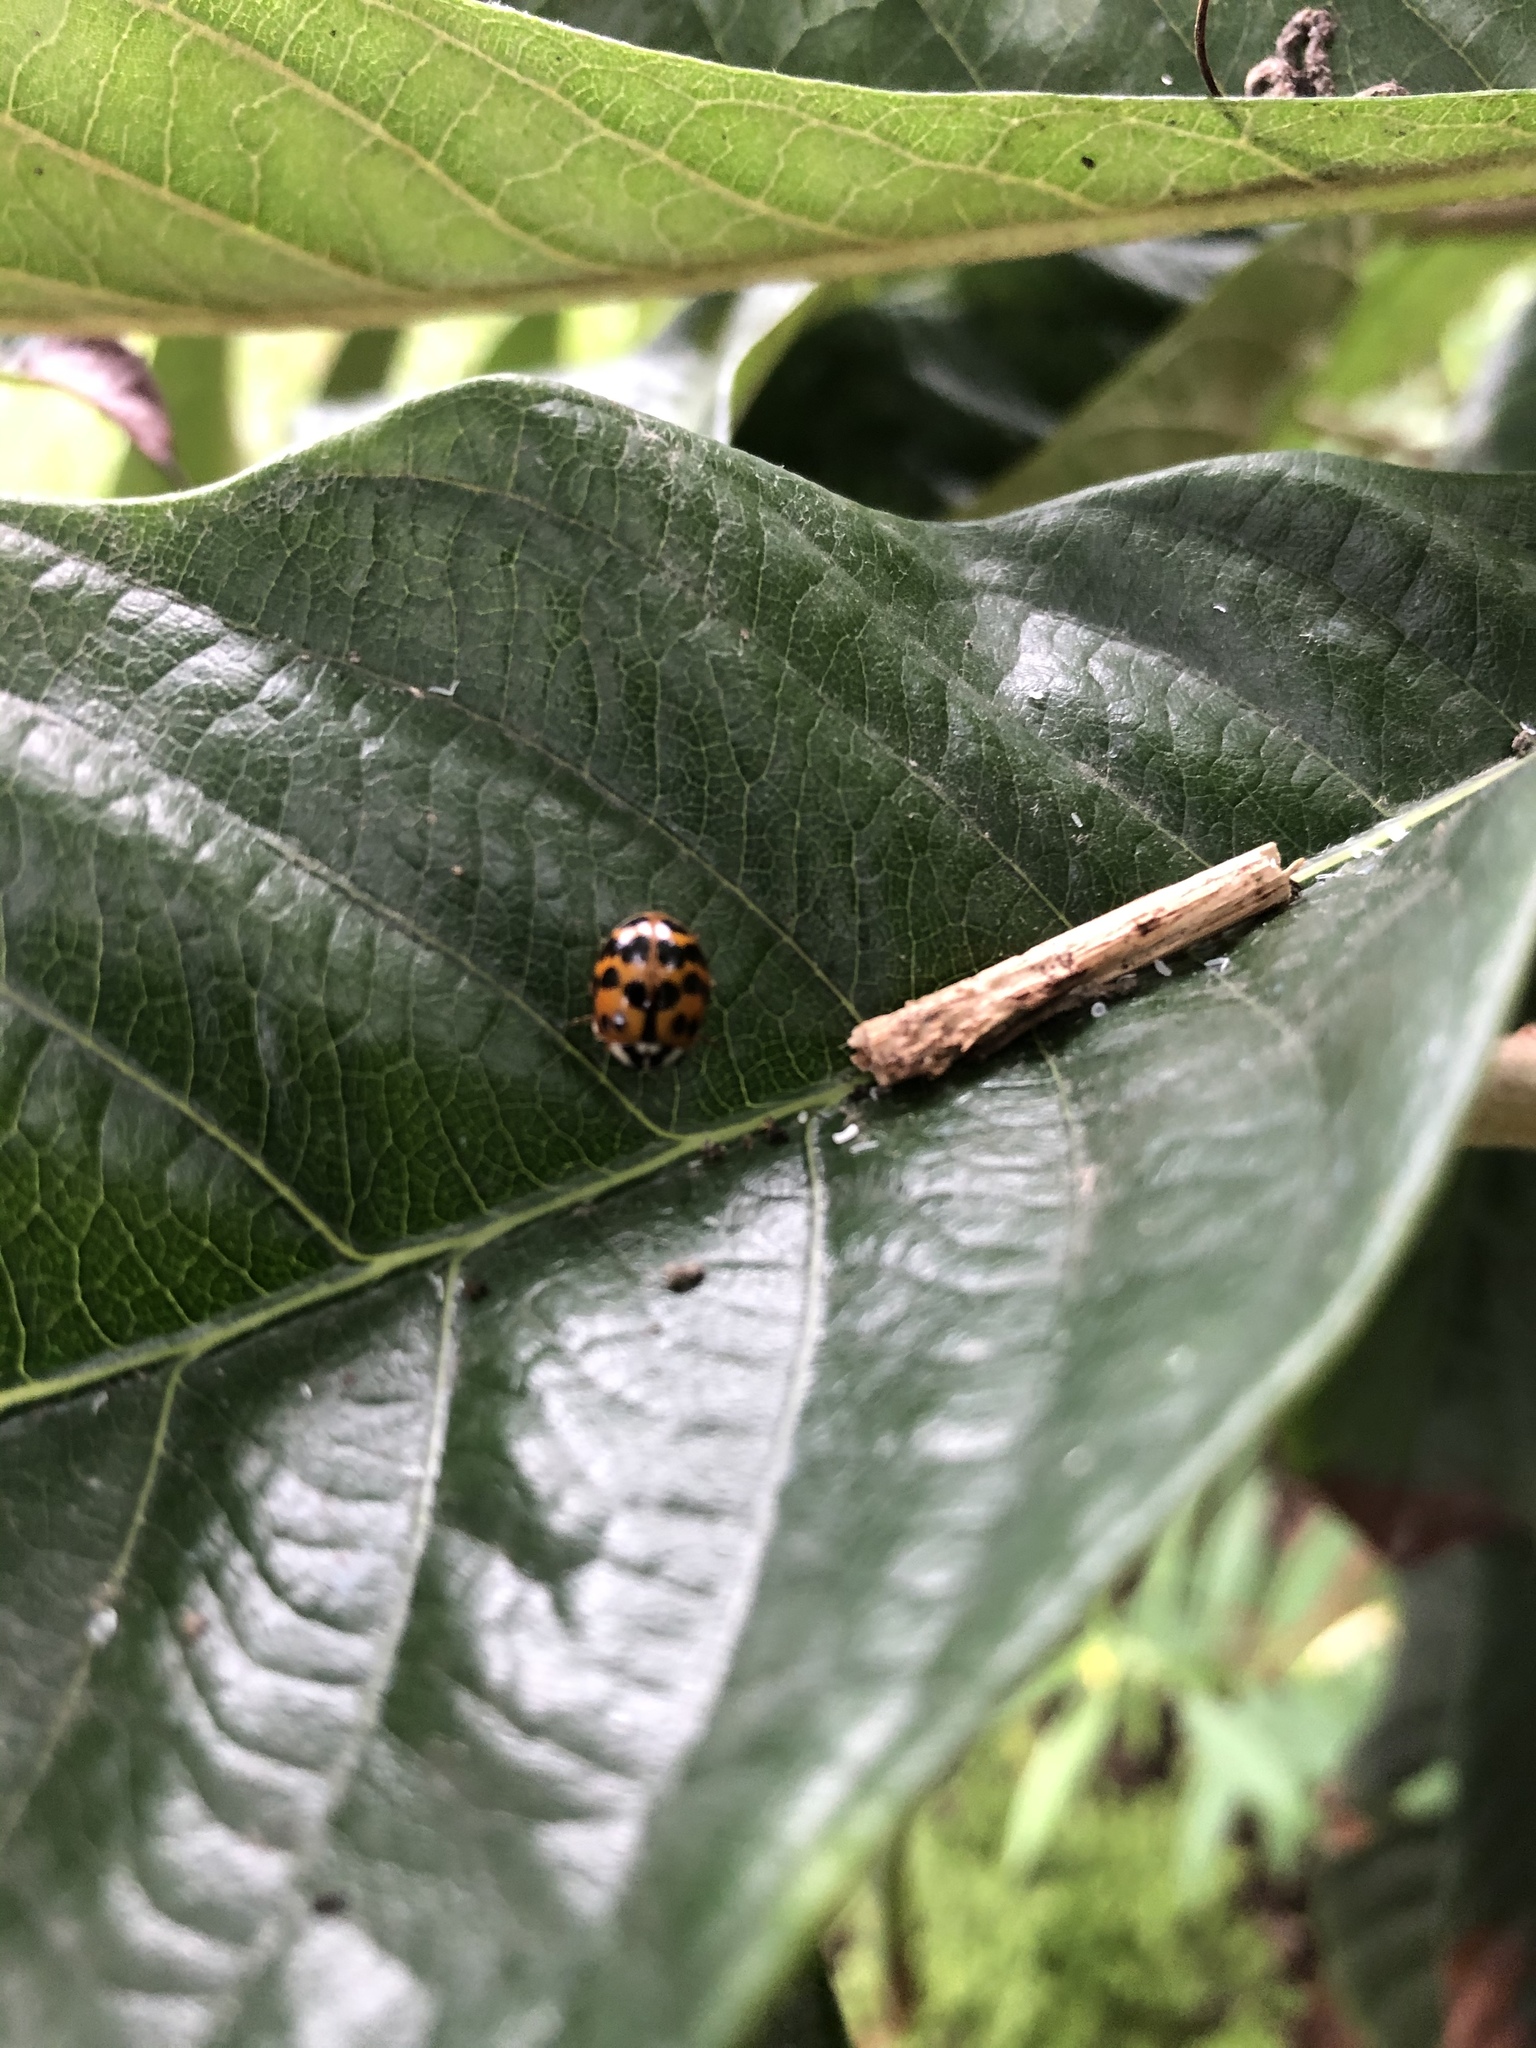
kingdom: Animalia
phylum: Arthropoda
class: Insecta
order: Coleoptera
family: Coccinellidae
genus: Harmonia
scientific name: Harmonia axyridis
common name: Harlequin ladybird
